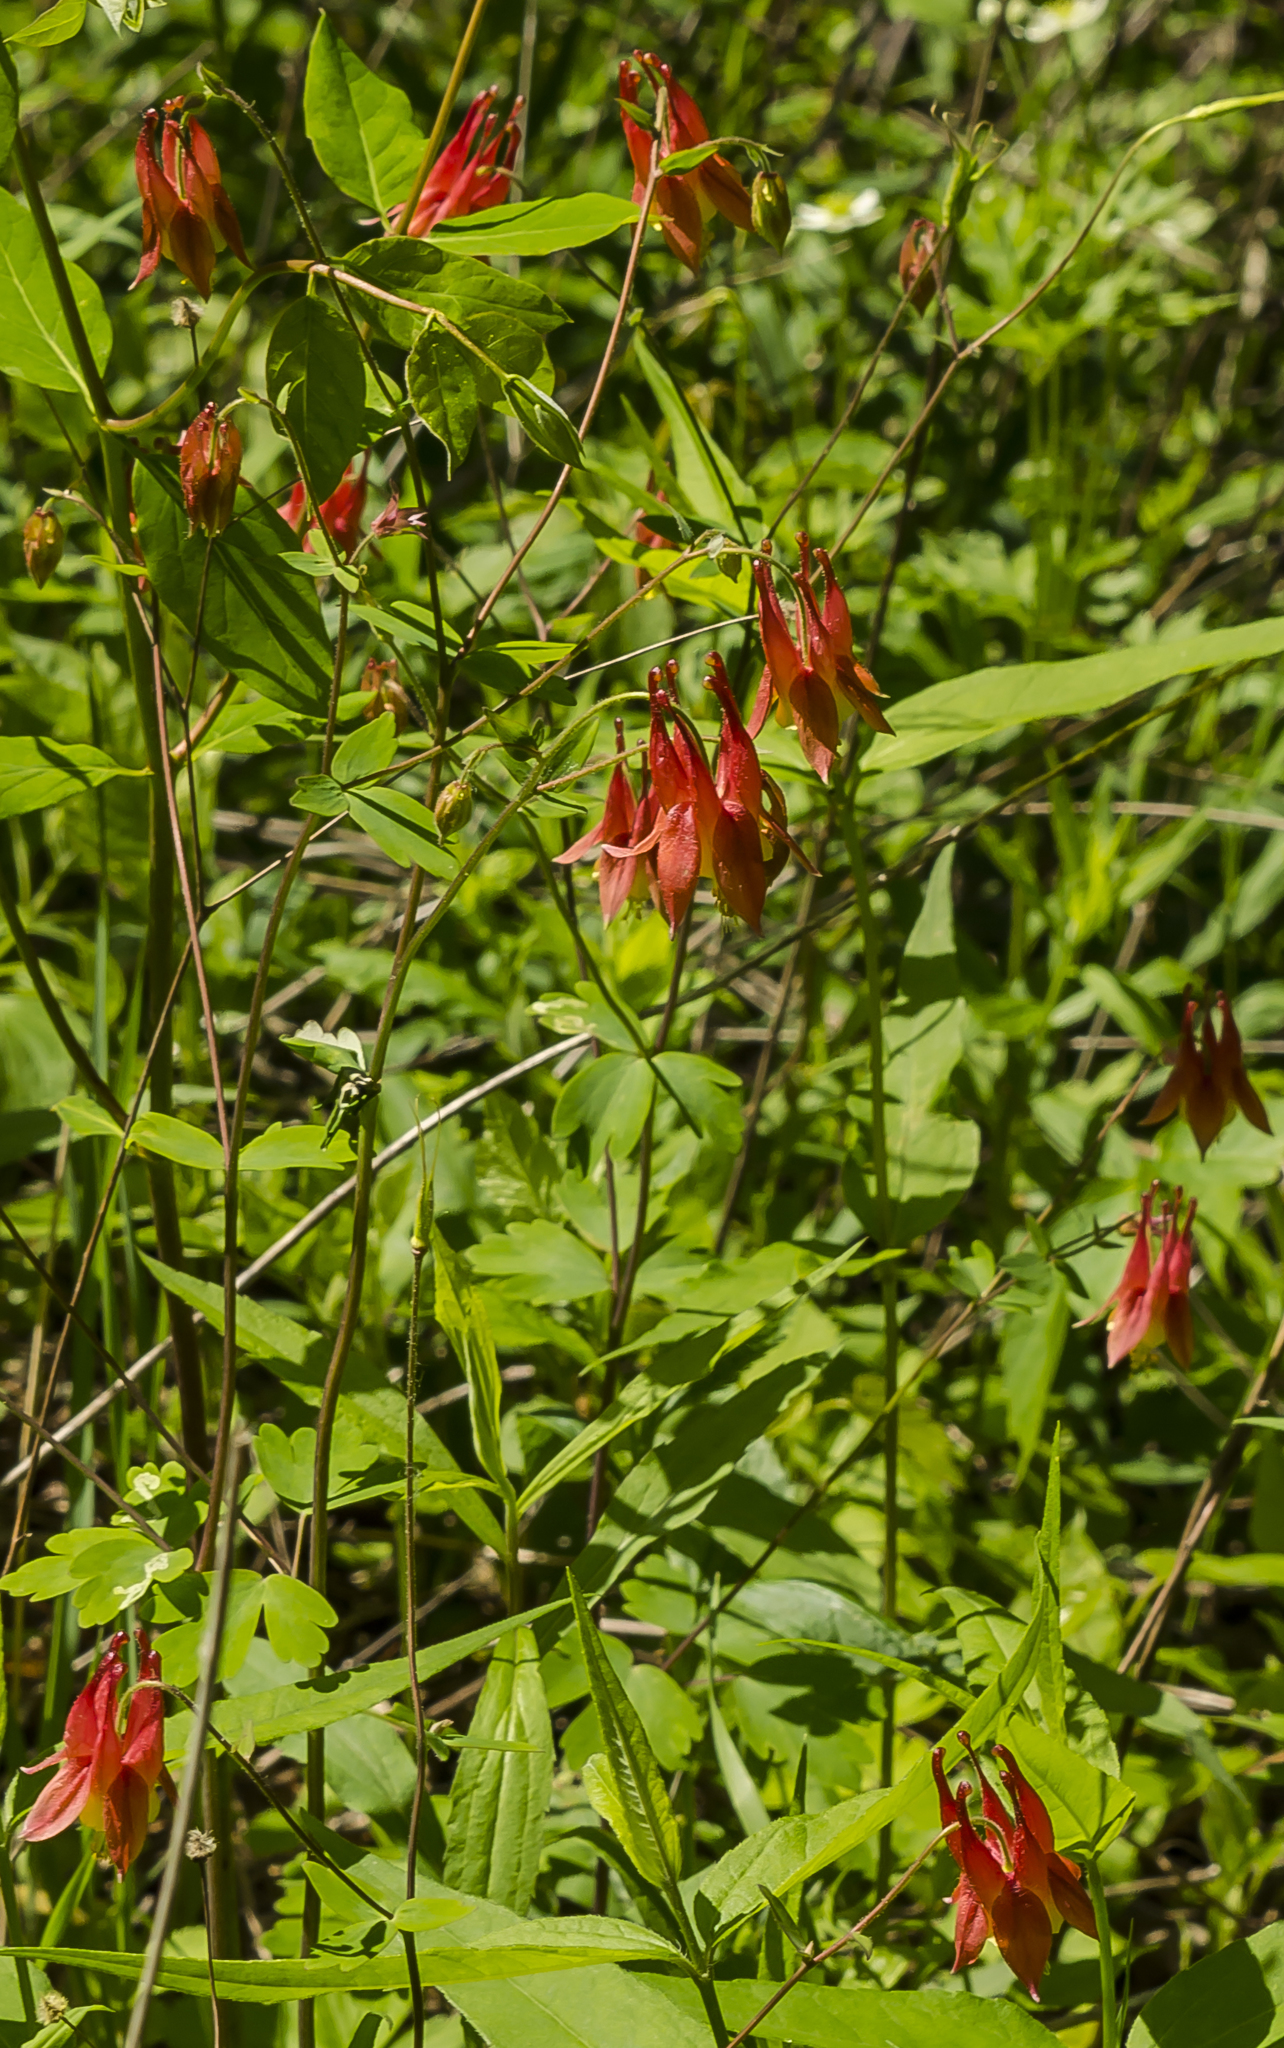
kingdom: Plantae
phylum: Tracheophyta
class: Magnoliopsida
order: Ranunculales
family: Ranunculaceae
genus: Aquilegia
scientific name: Aquilegia canadensis
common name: American columbine
